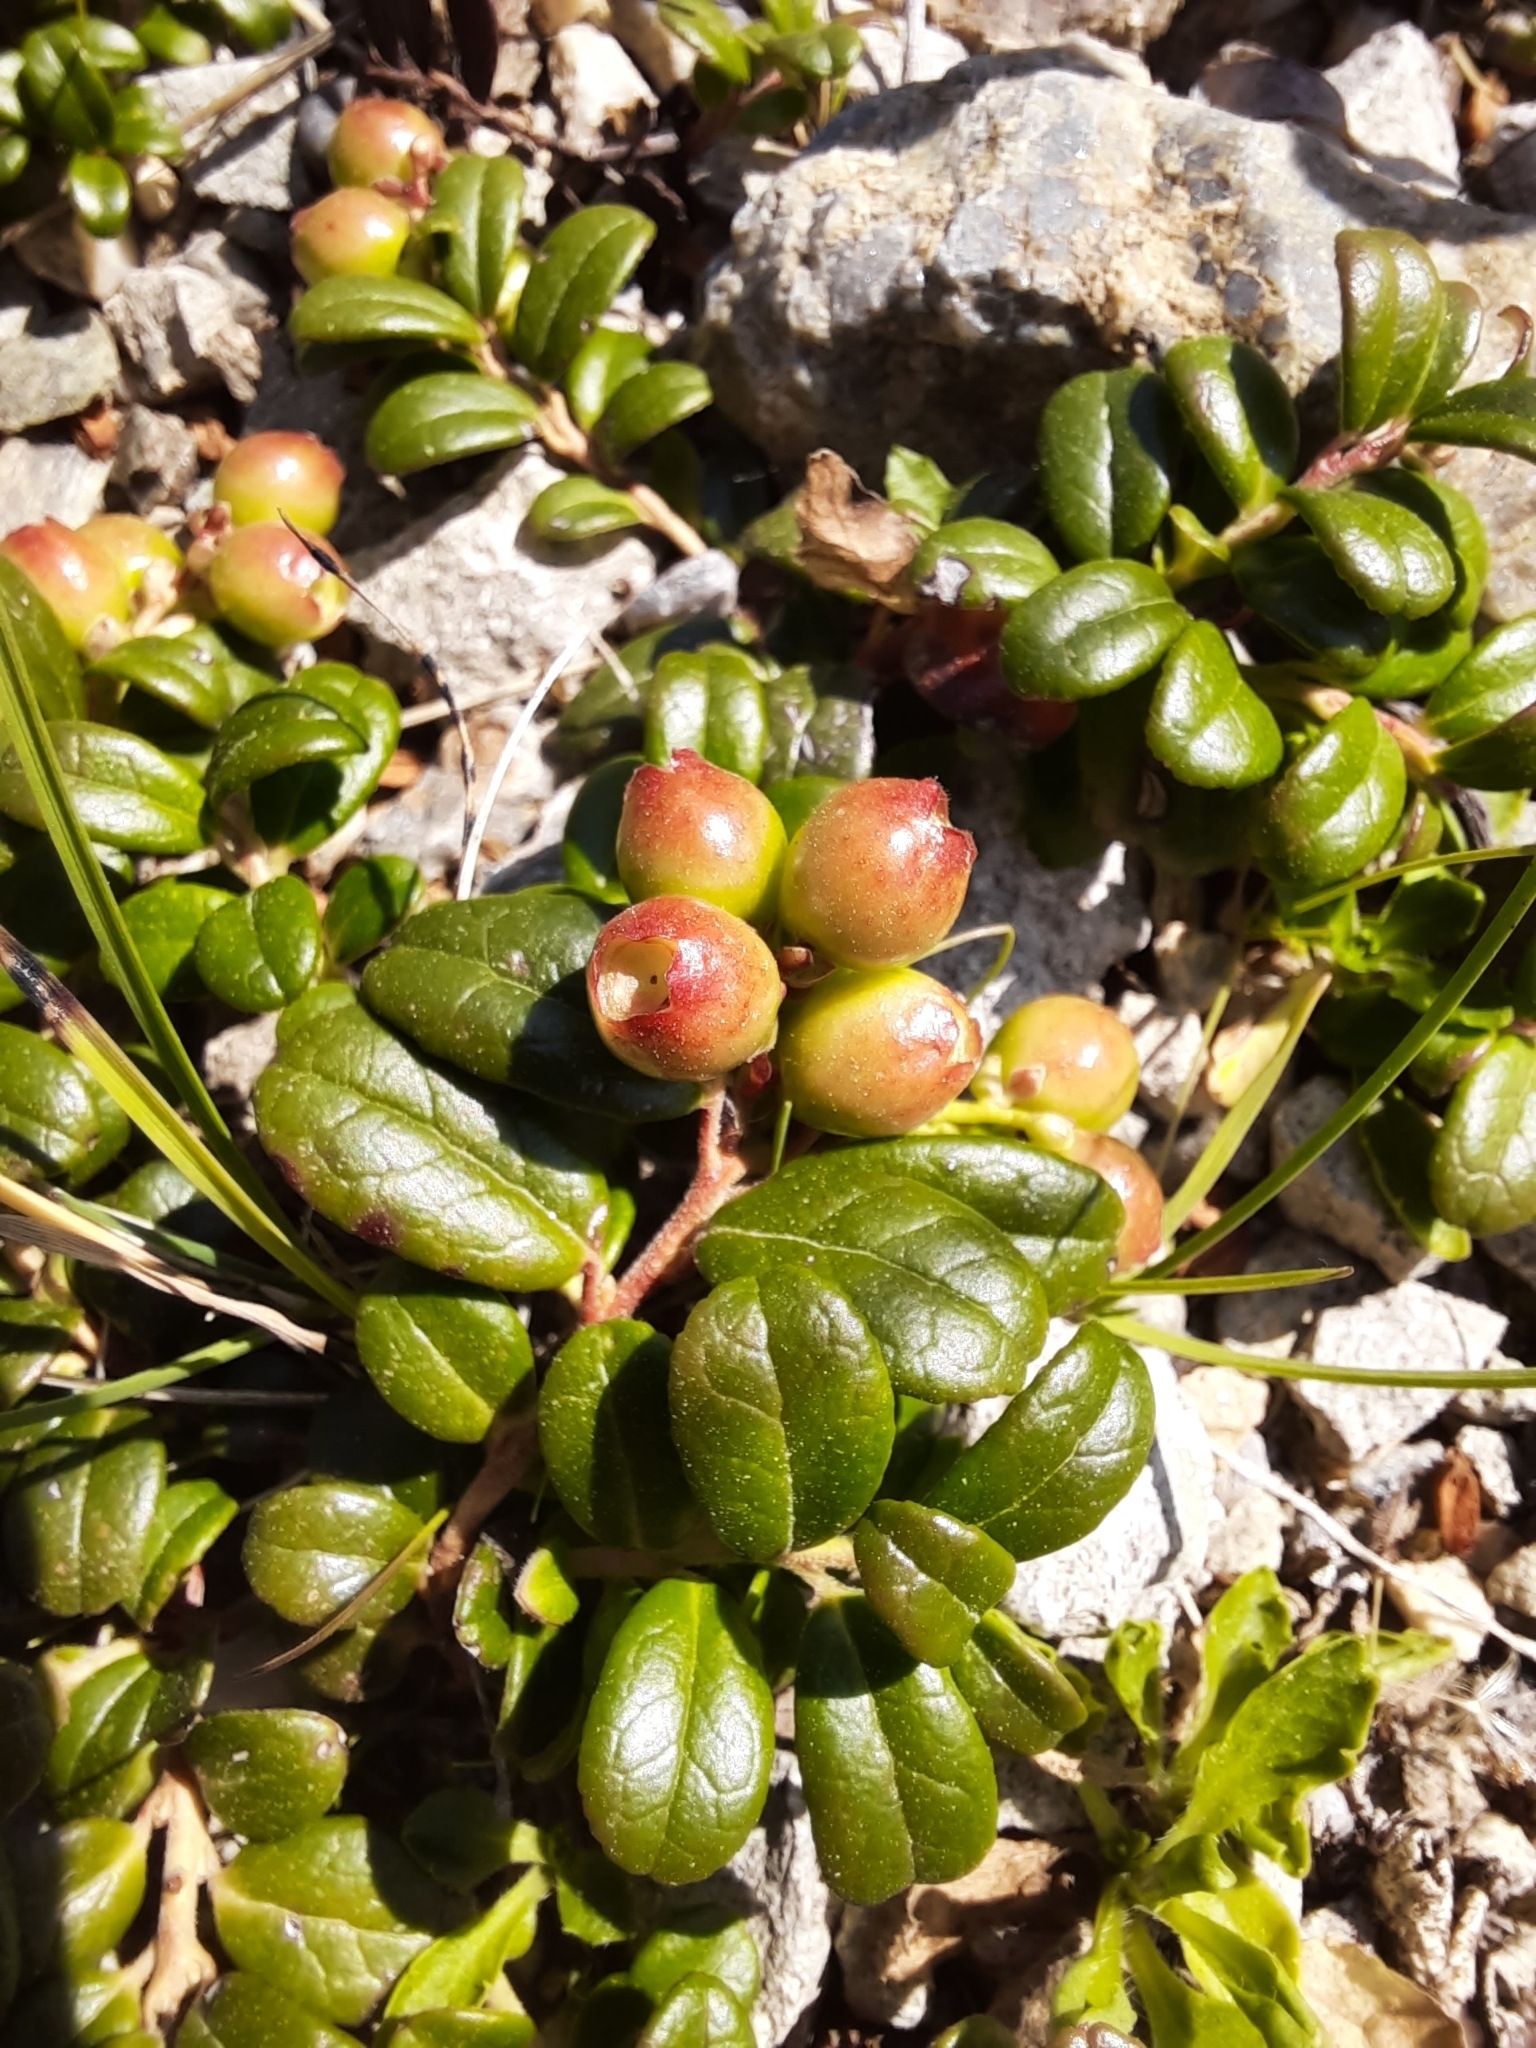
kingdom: Plantae
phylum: Tracheophyta
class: Magnoliopsida
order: Ericales
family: Ericaceae
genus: Vaccinium
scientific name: Vaccinium vitis-idaea
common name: Cowberry
